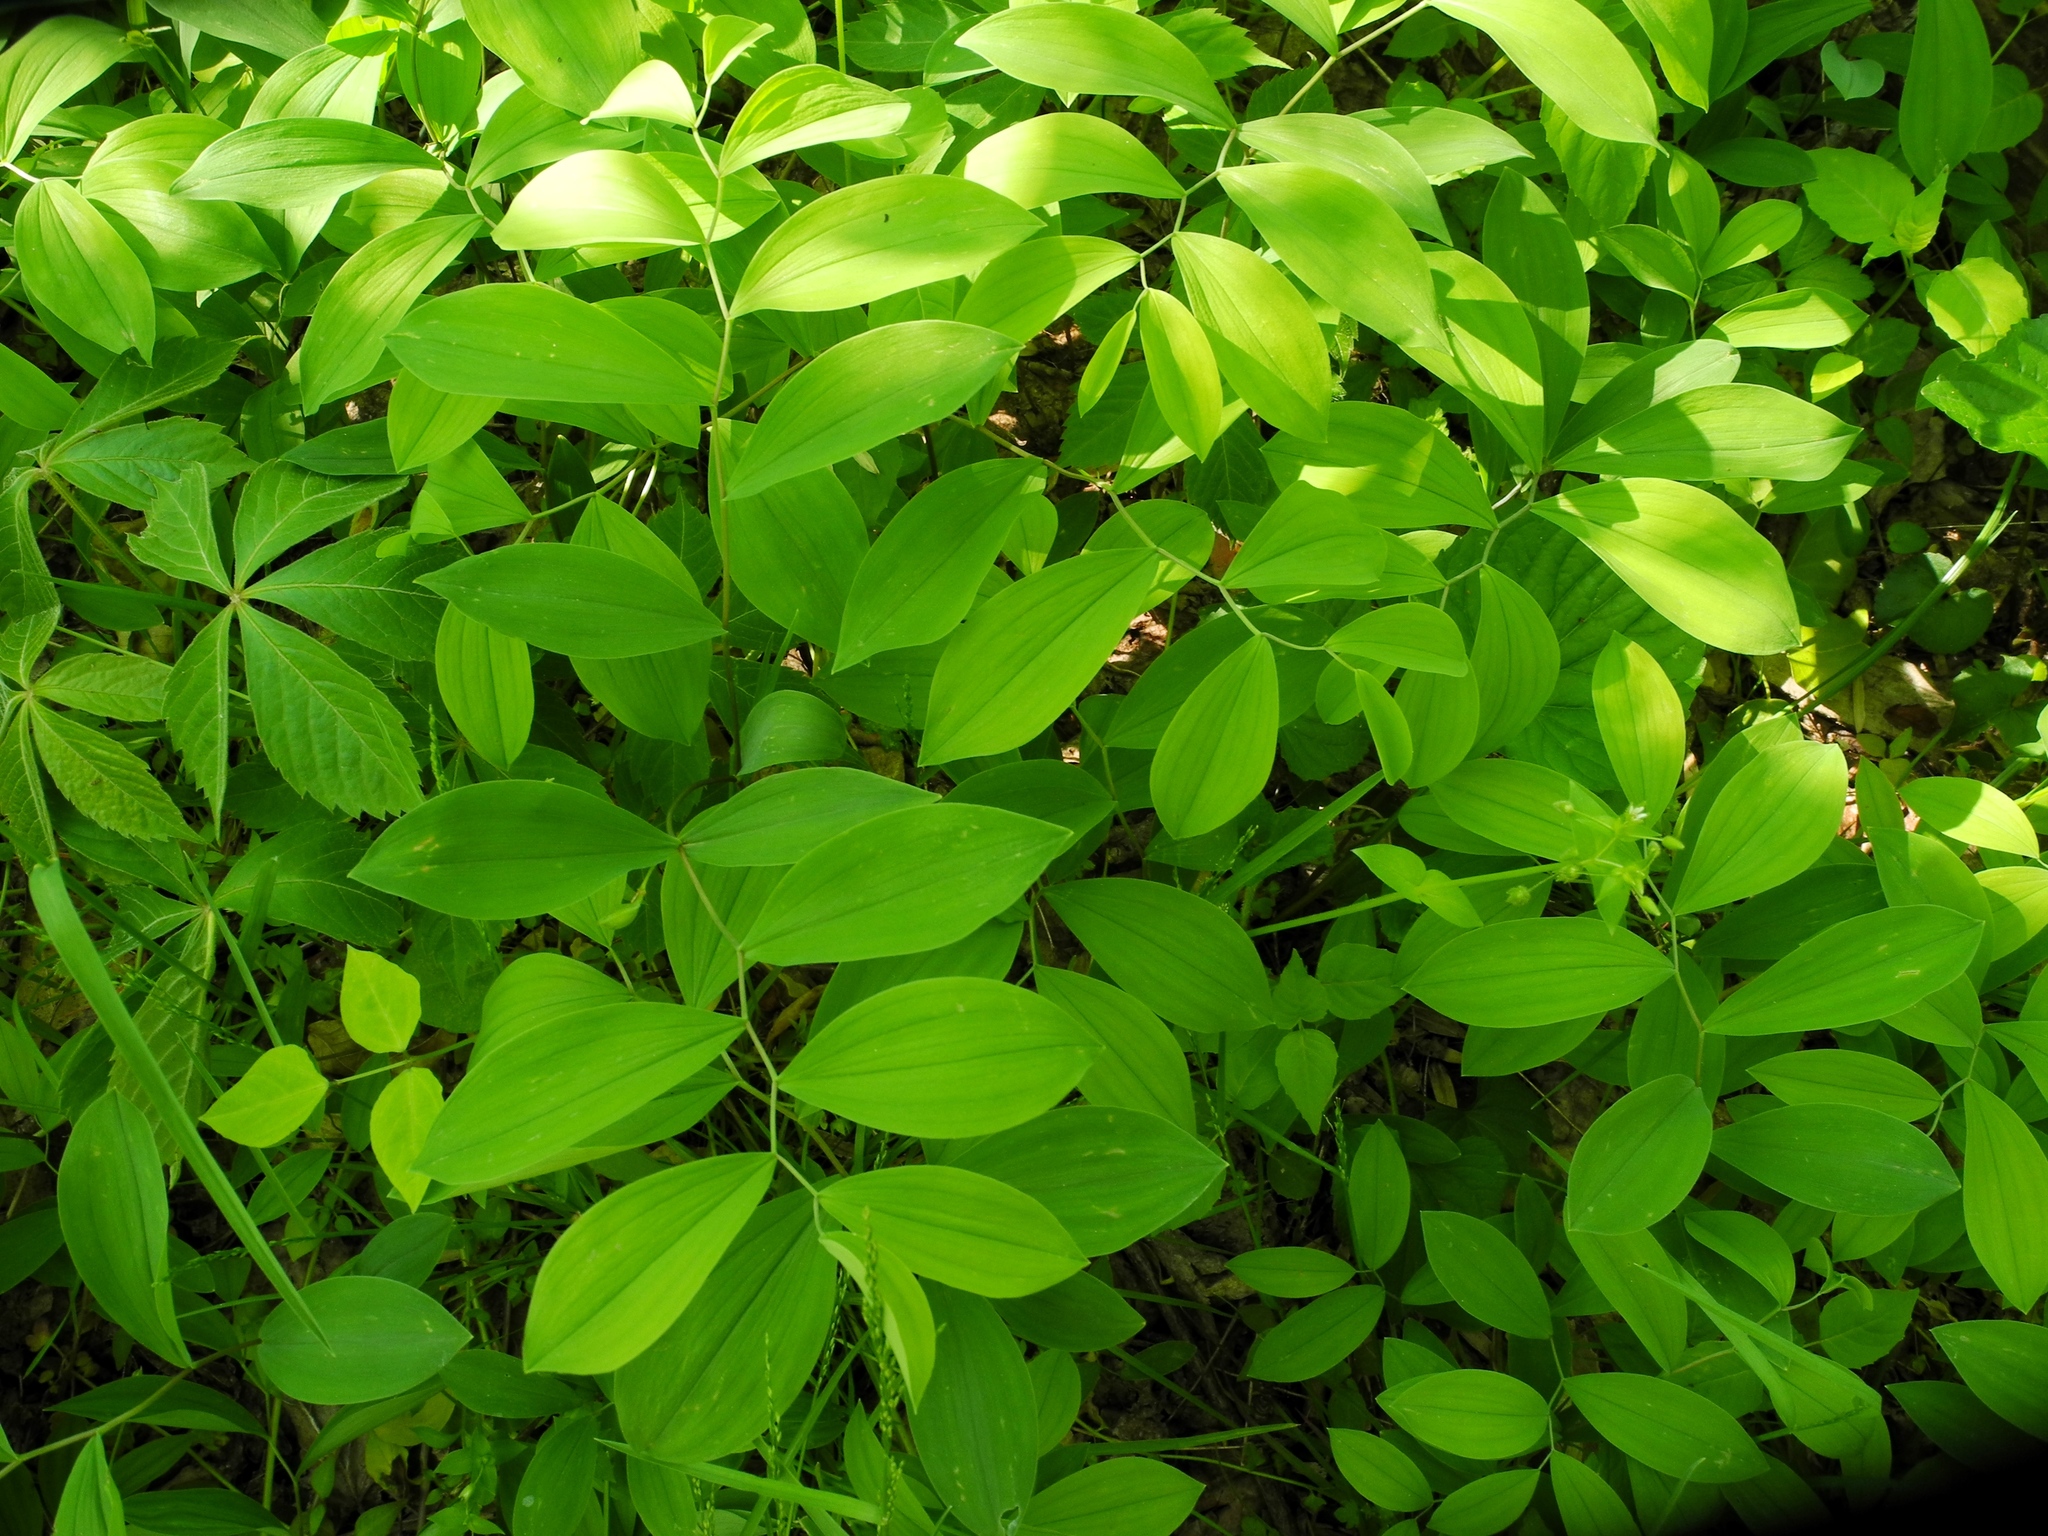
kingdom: Plantae
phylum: Tracheophyta
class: Liliopsida
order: Liliales
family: Colchicaceae
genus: Uvularia
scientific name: Uvularia sessilifolia
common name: Straw-lily
